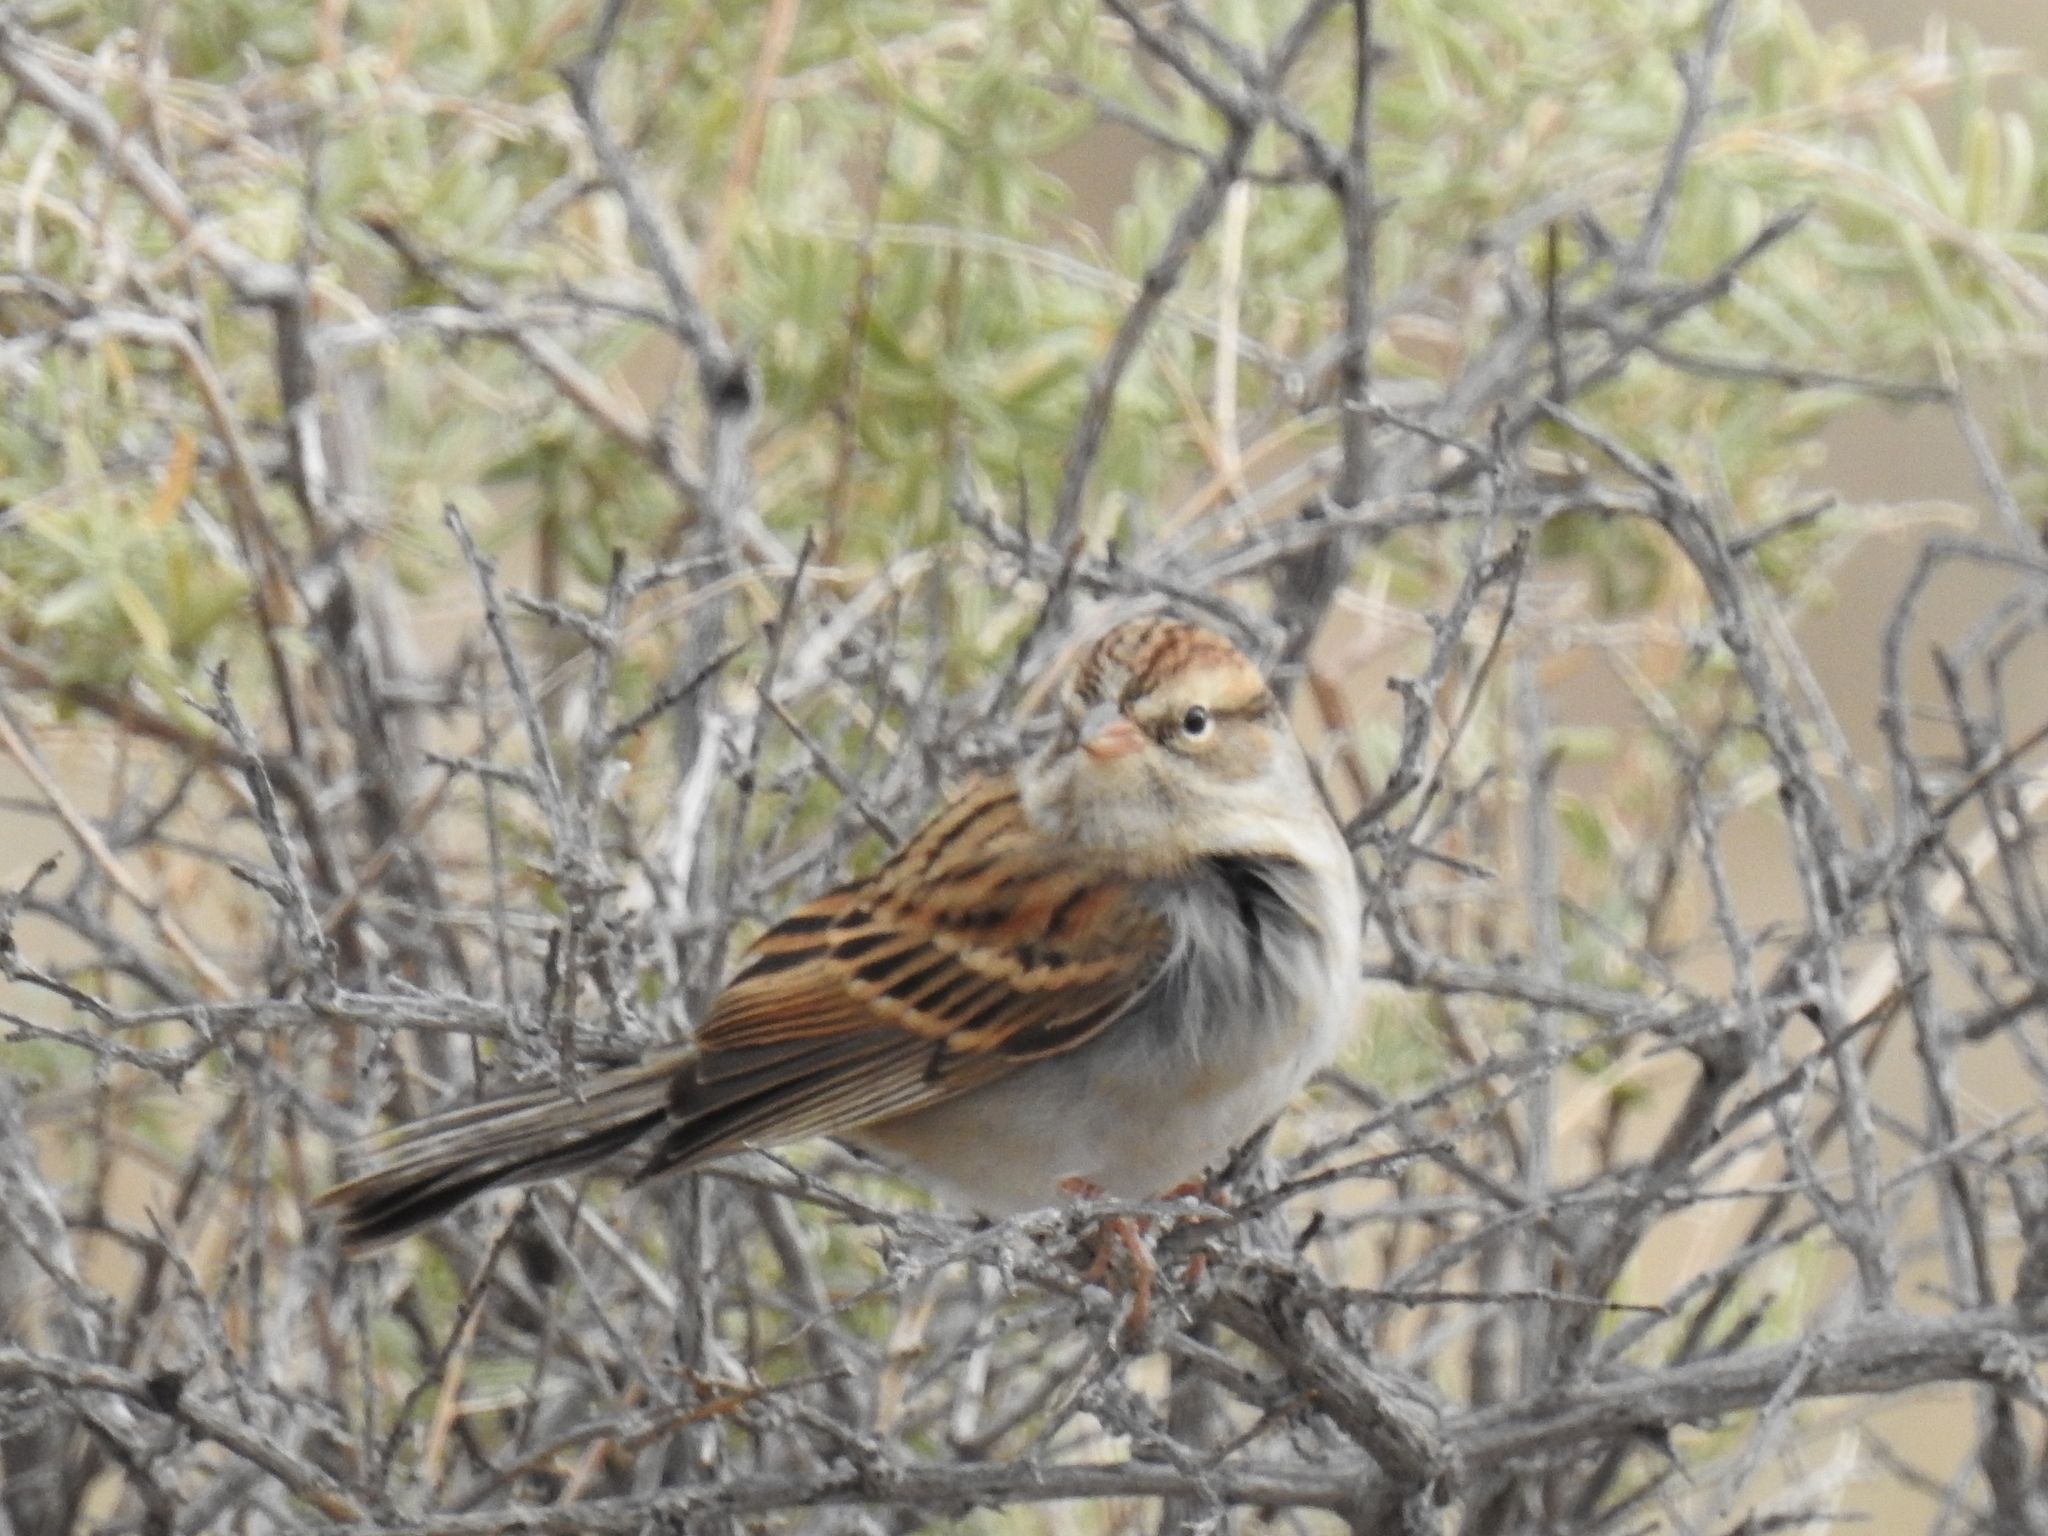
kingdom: Animalia
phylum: Chordata
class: Aves
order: Passeriformes
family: Passerellidae
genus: Spizella
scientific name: Spizella passerina
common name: Chipping sparrow
